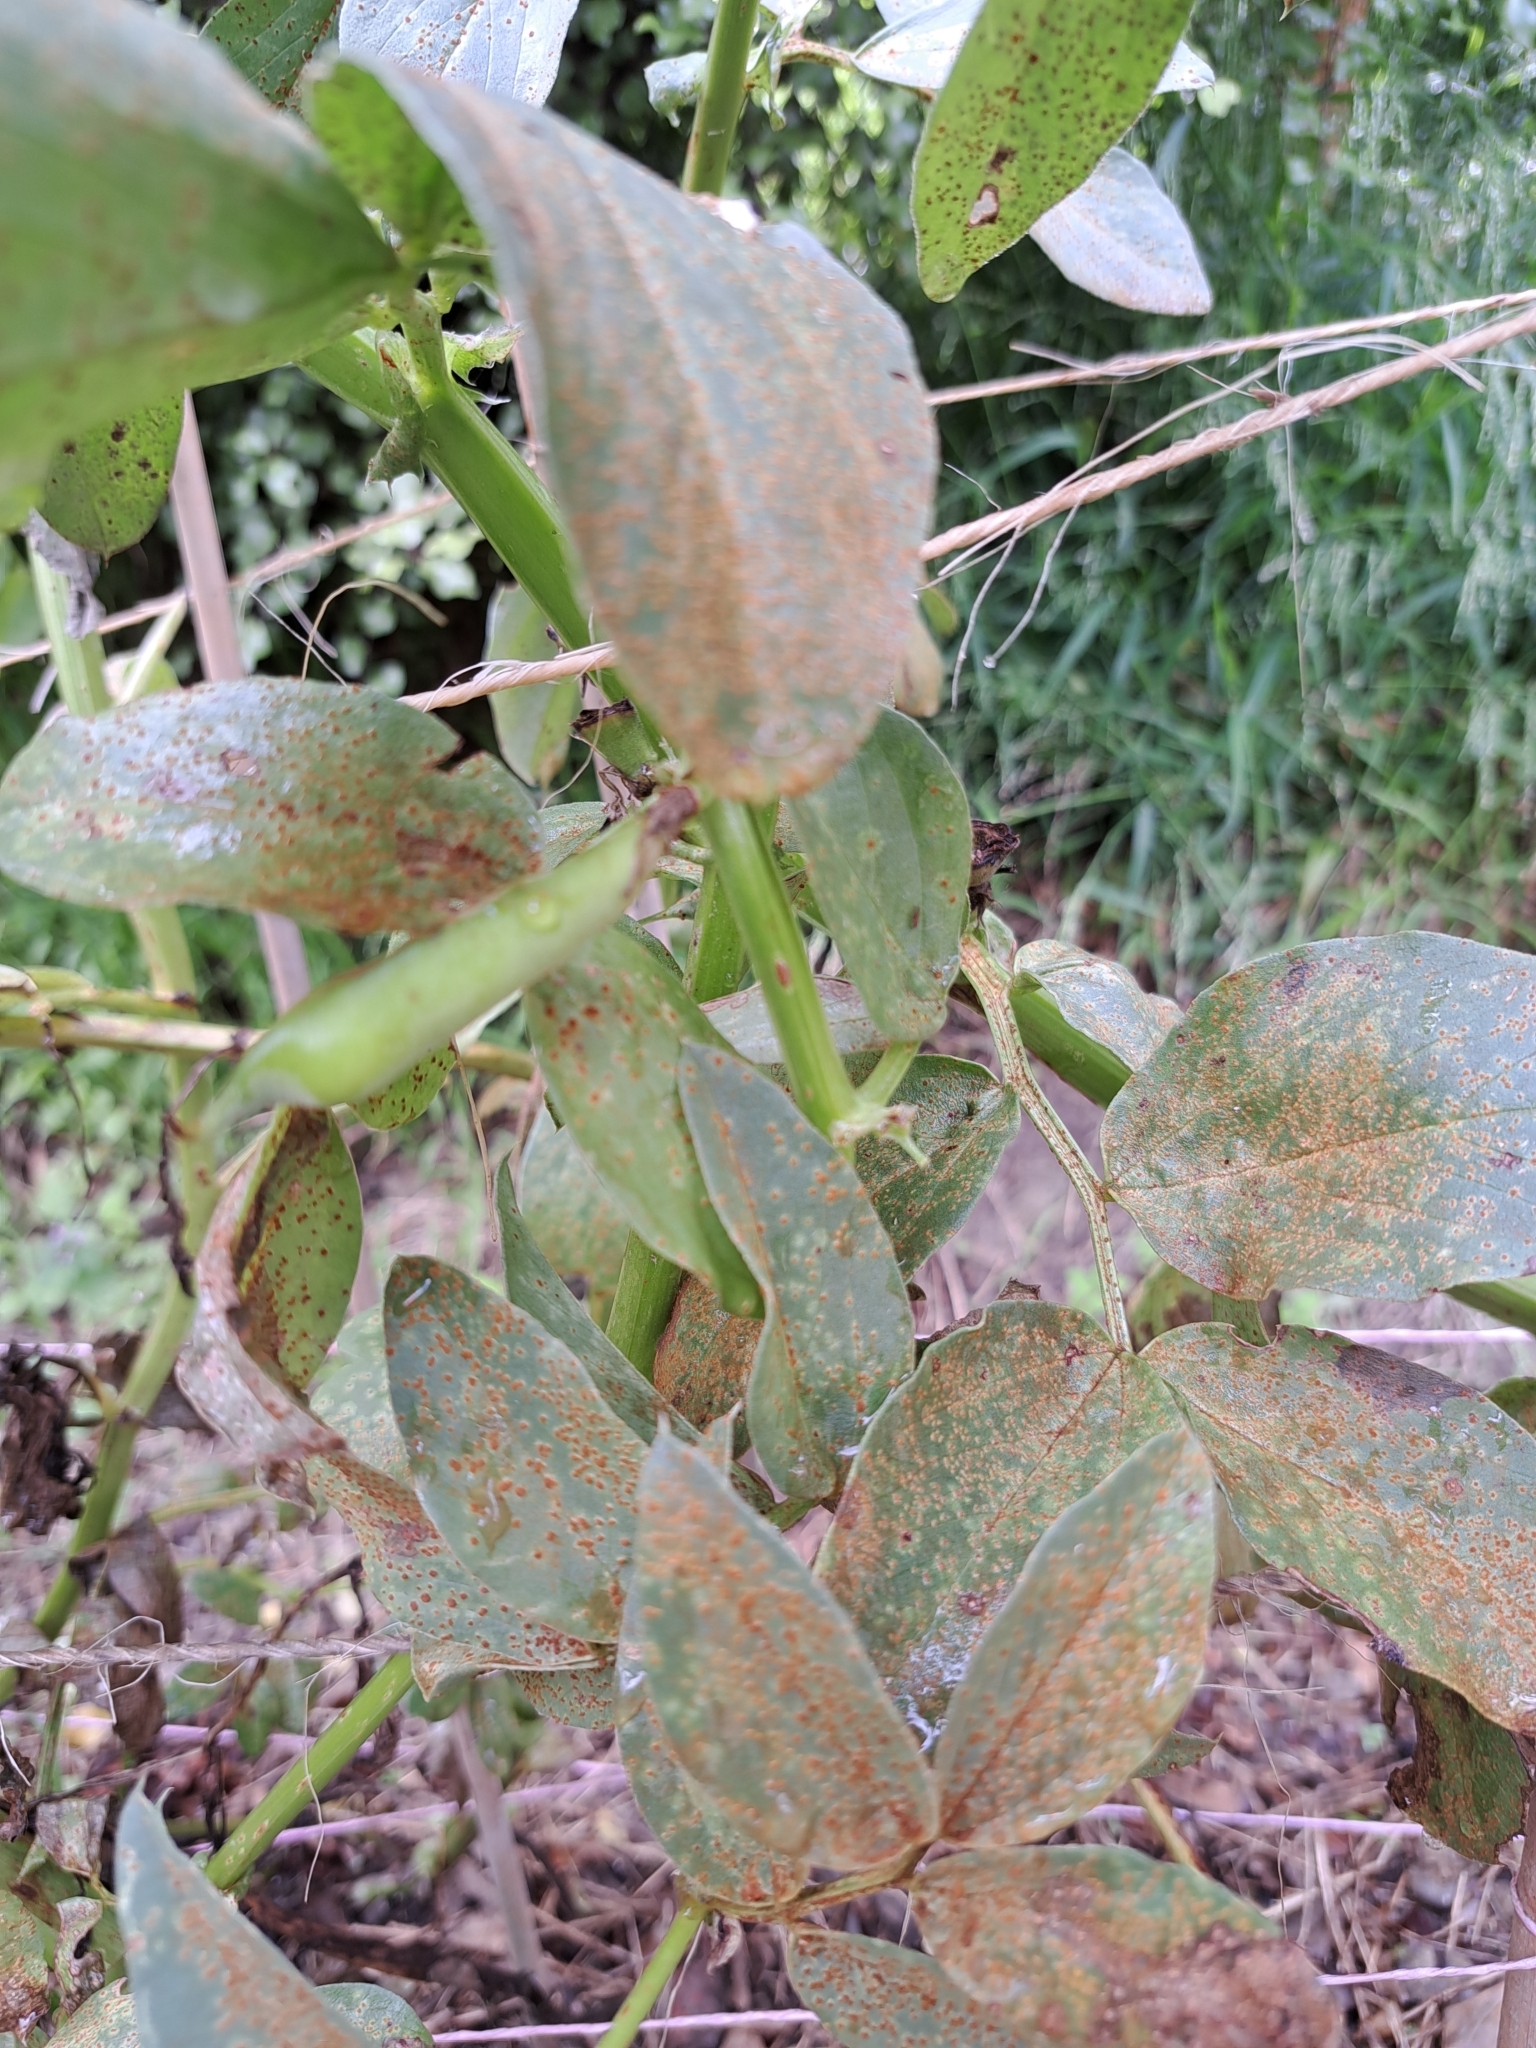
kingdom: Fungi
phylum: Basidiomycota
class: Pucciniomycetes
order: Pucciniales
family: Pucciniaceae
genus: Uromyces
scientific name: Uromyces viciae-fabae
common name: Broad bean rust
